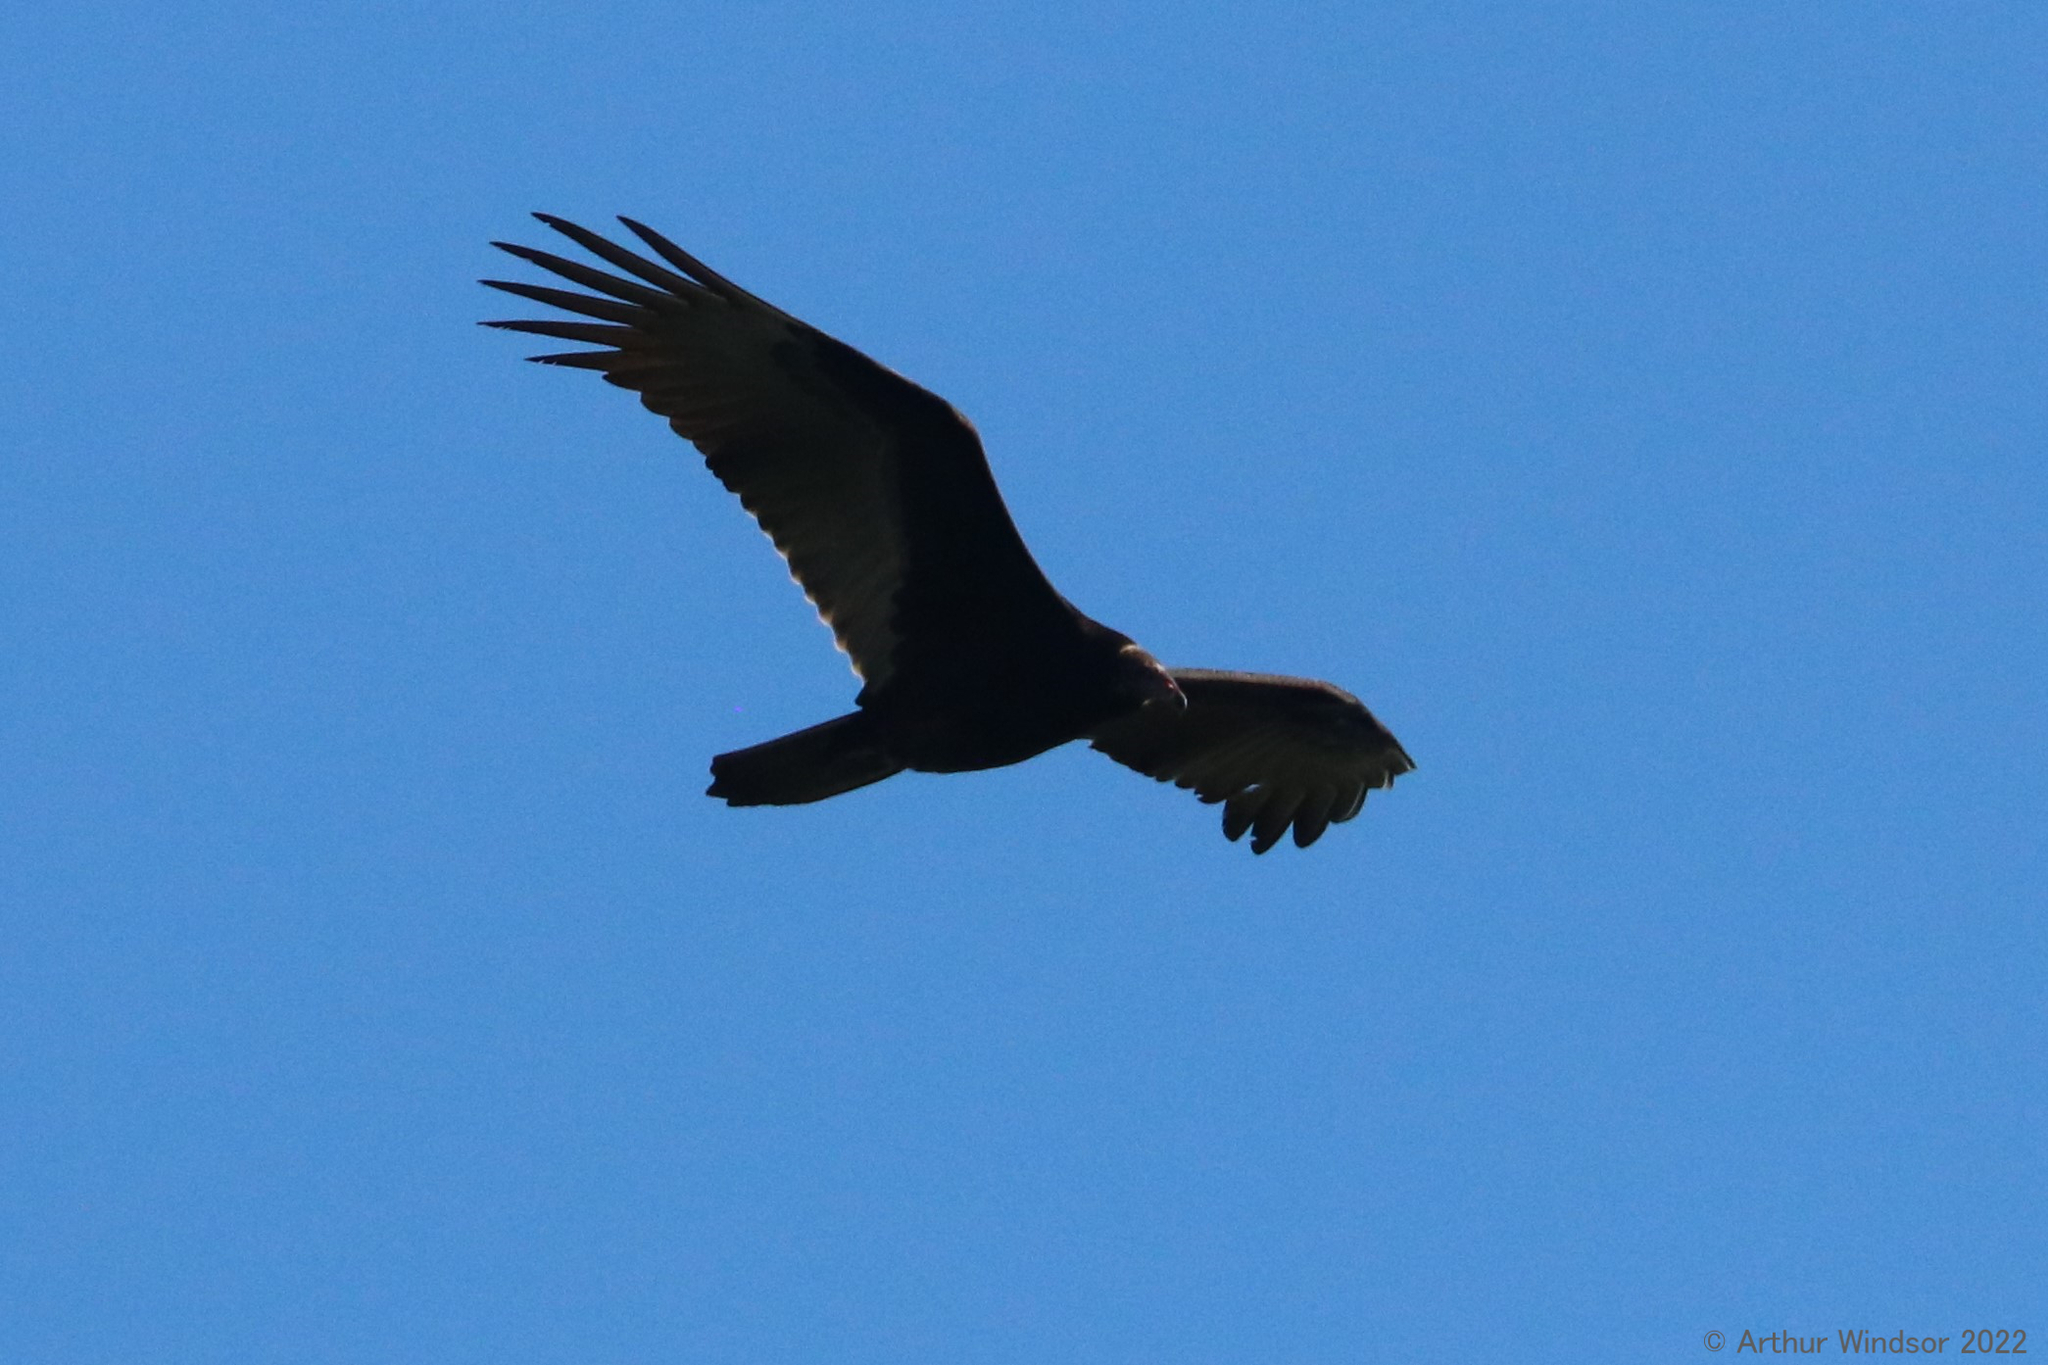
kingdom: Animalia
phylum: Chordata
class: Aves
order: Accipitriformes
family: Cathartidae
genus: Cathartes
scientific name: Cathartes aura
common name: Turkey vulture
